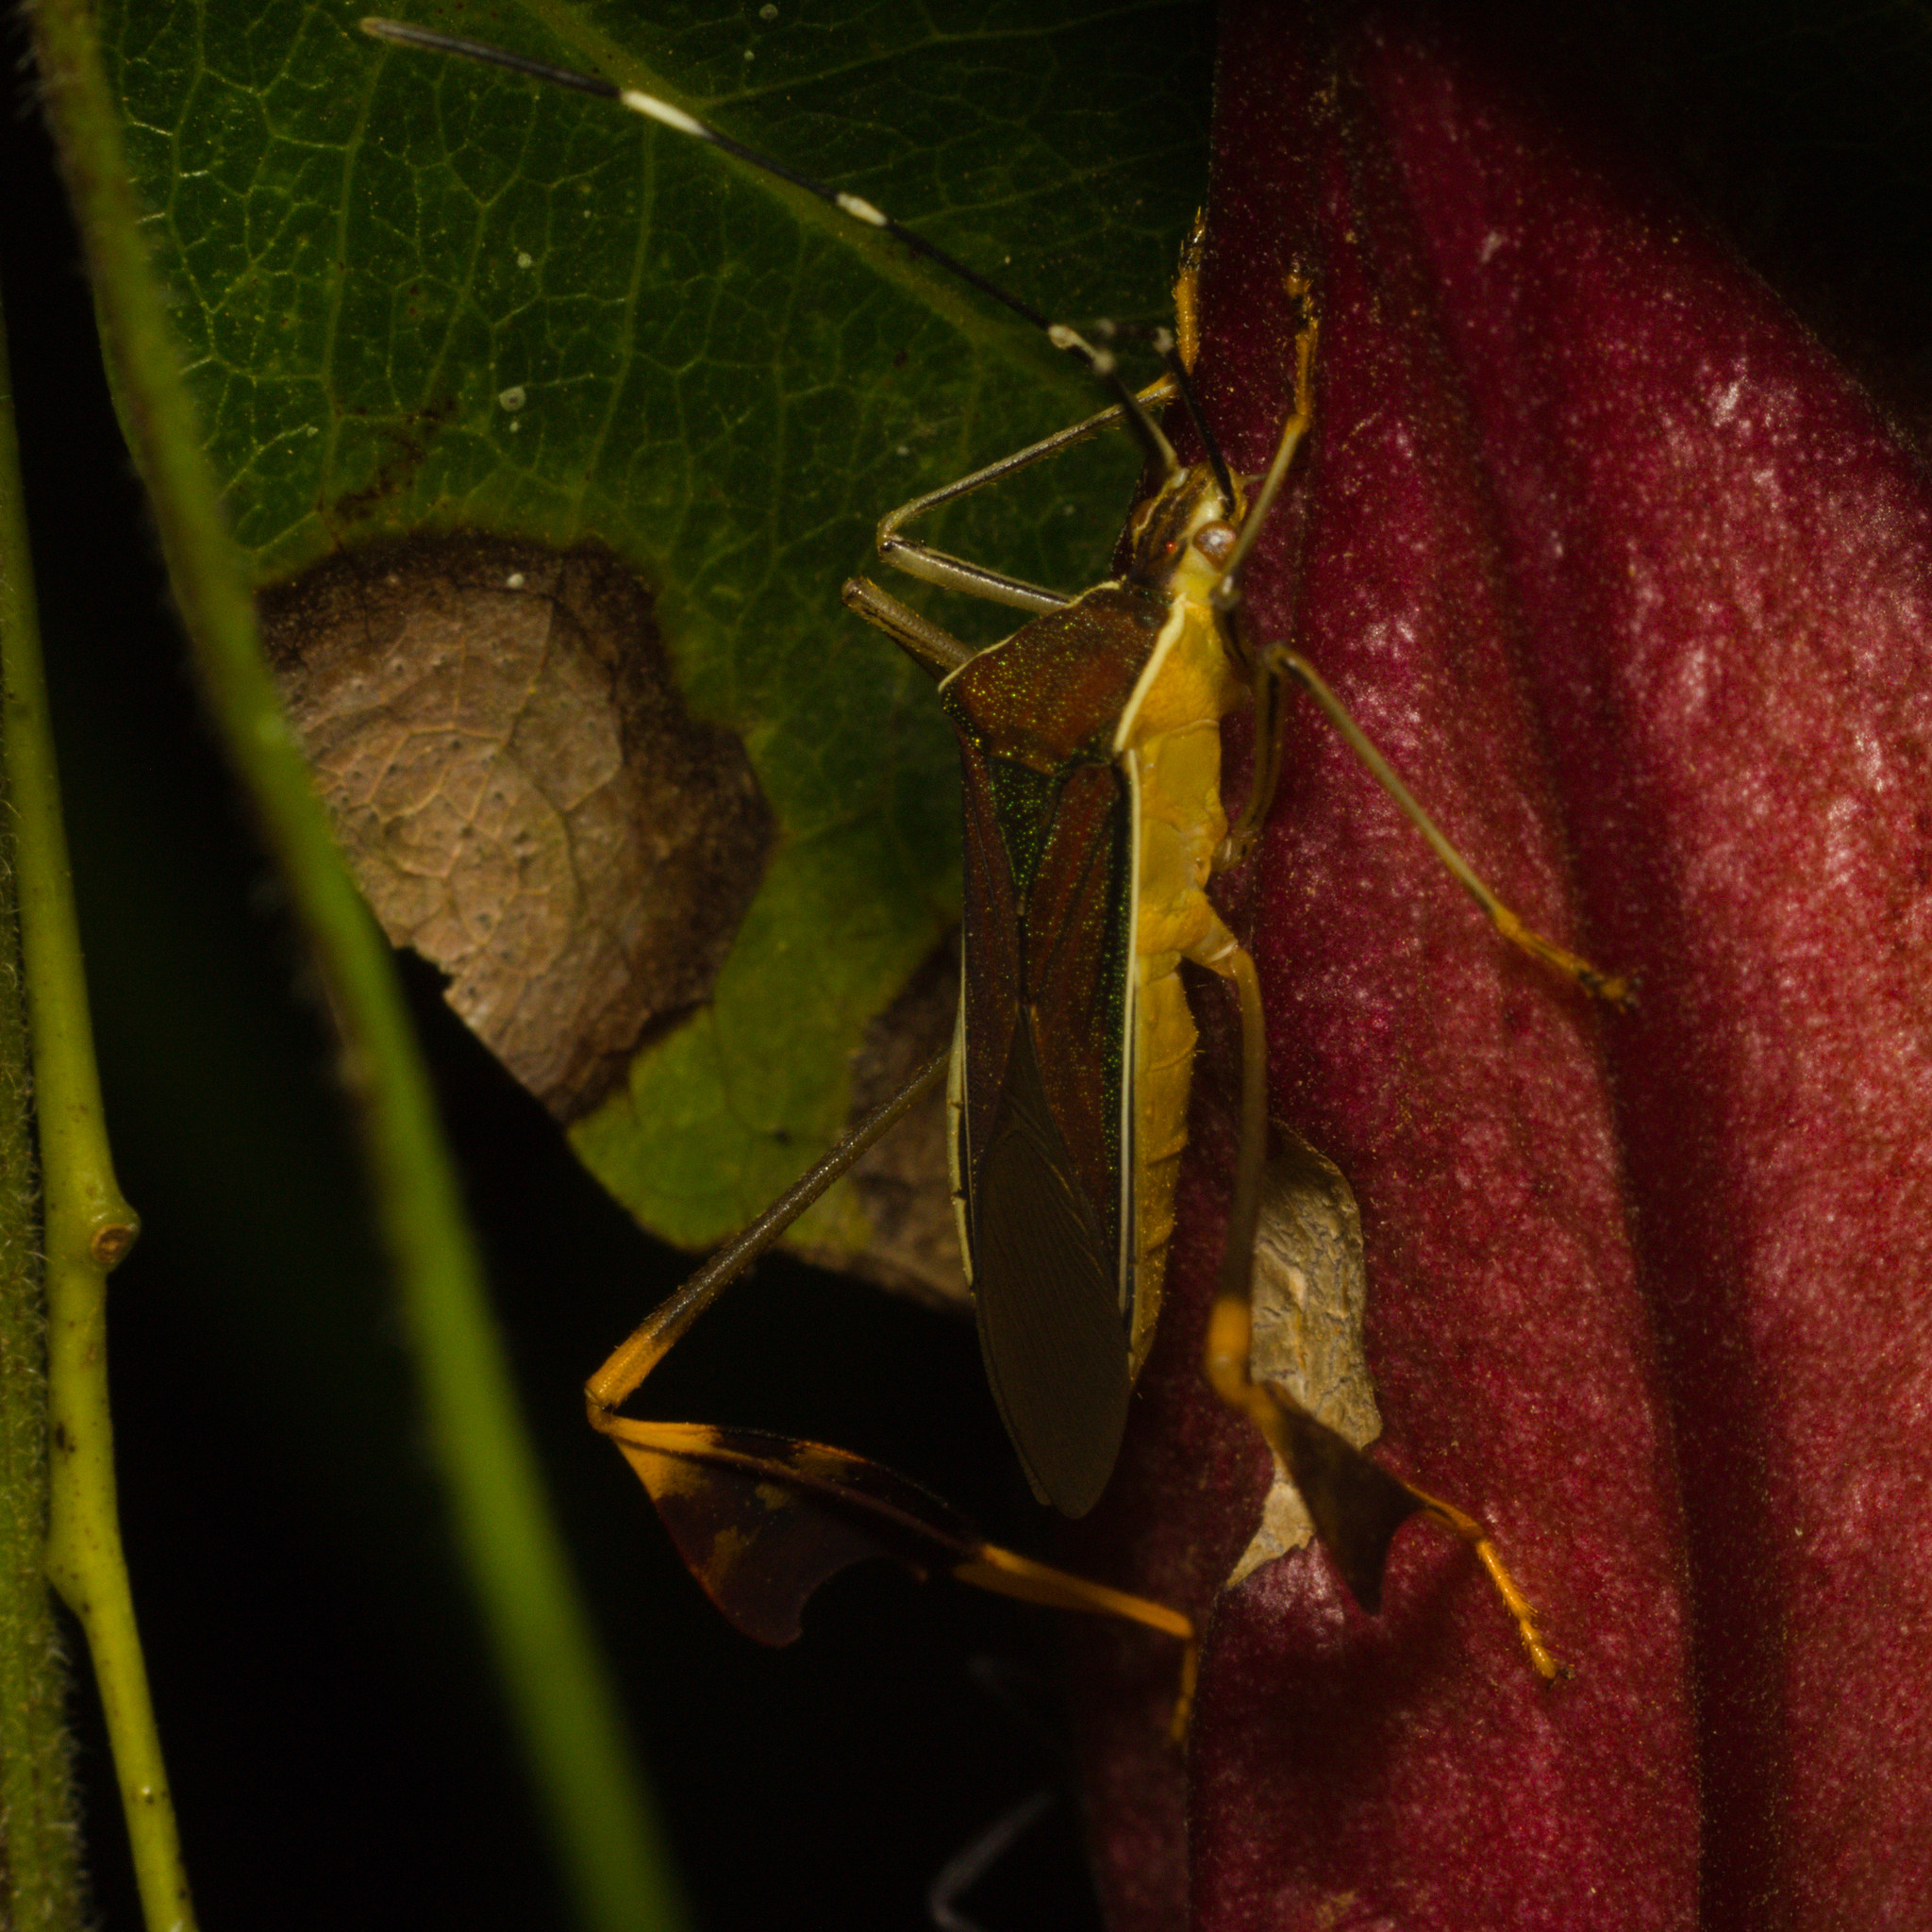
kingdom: Animalia
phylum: Arthropoda
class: Insecta
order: Hemiptera
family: Coreidae
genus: Anisoscelis
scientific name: Anisoscelis marginellus
